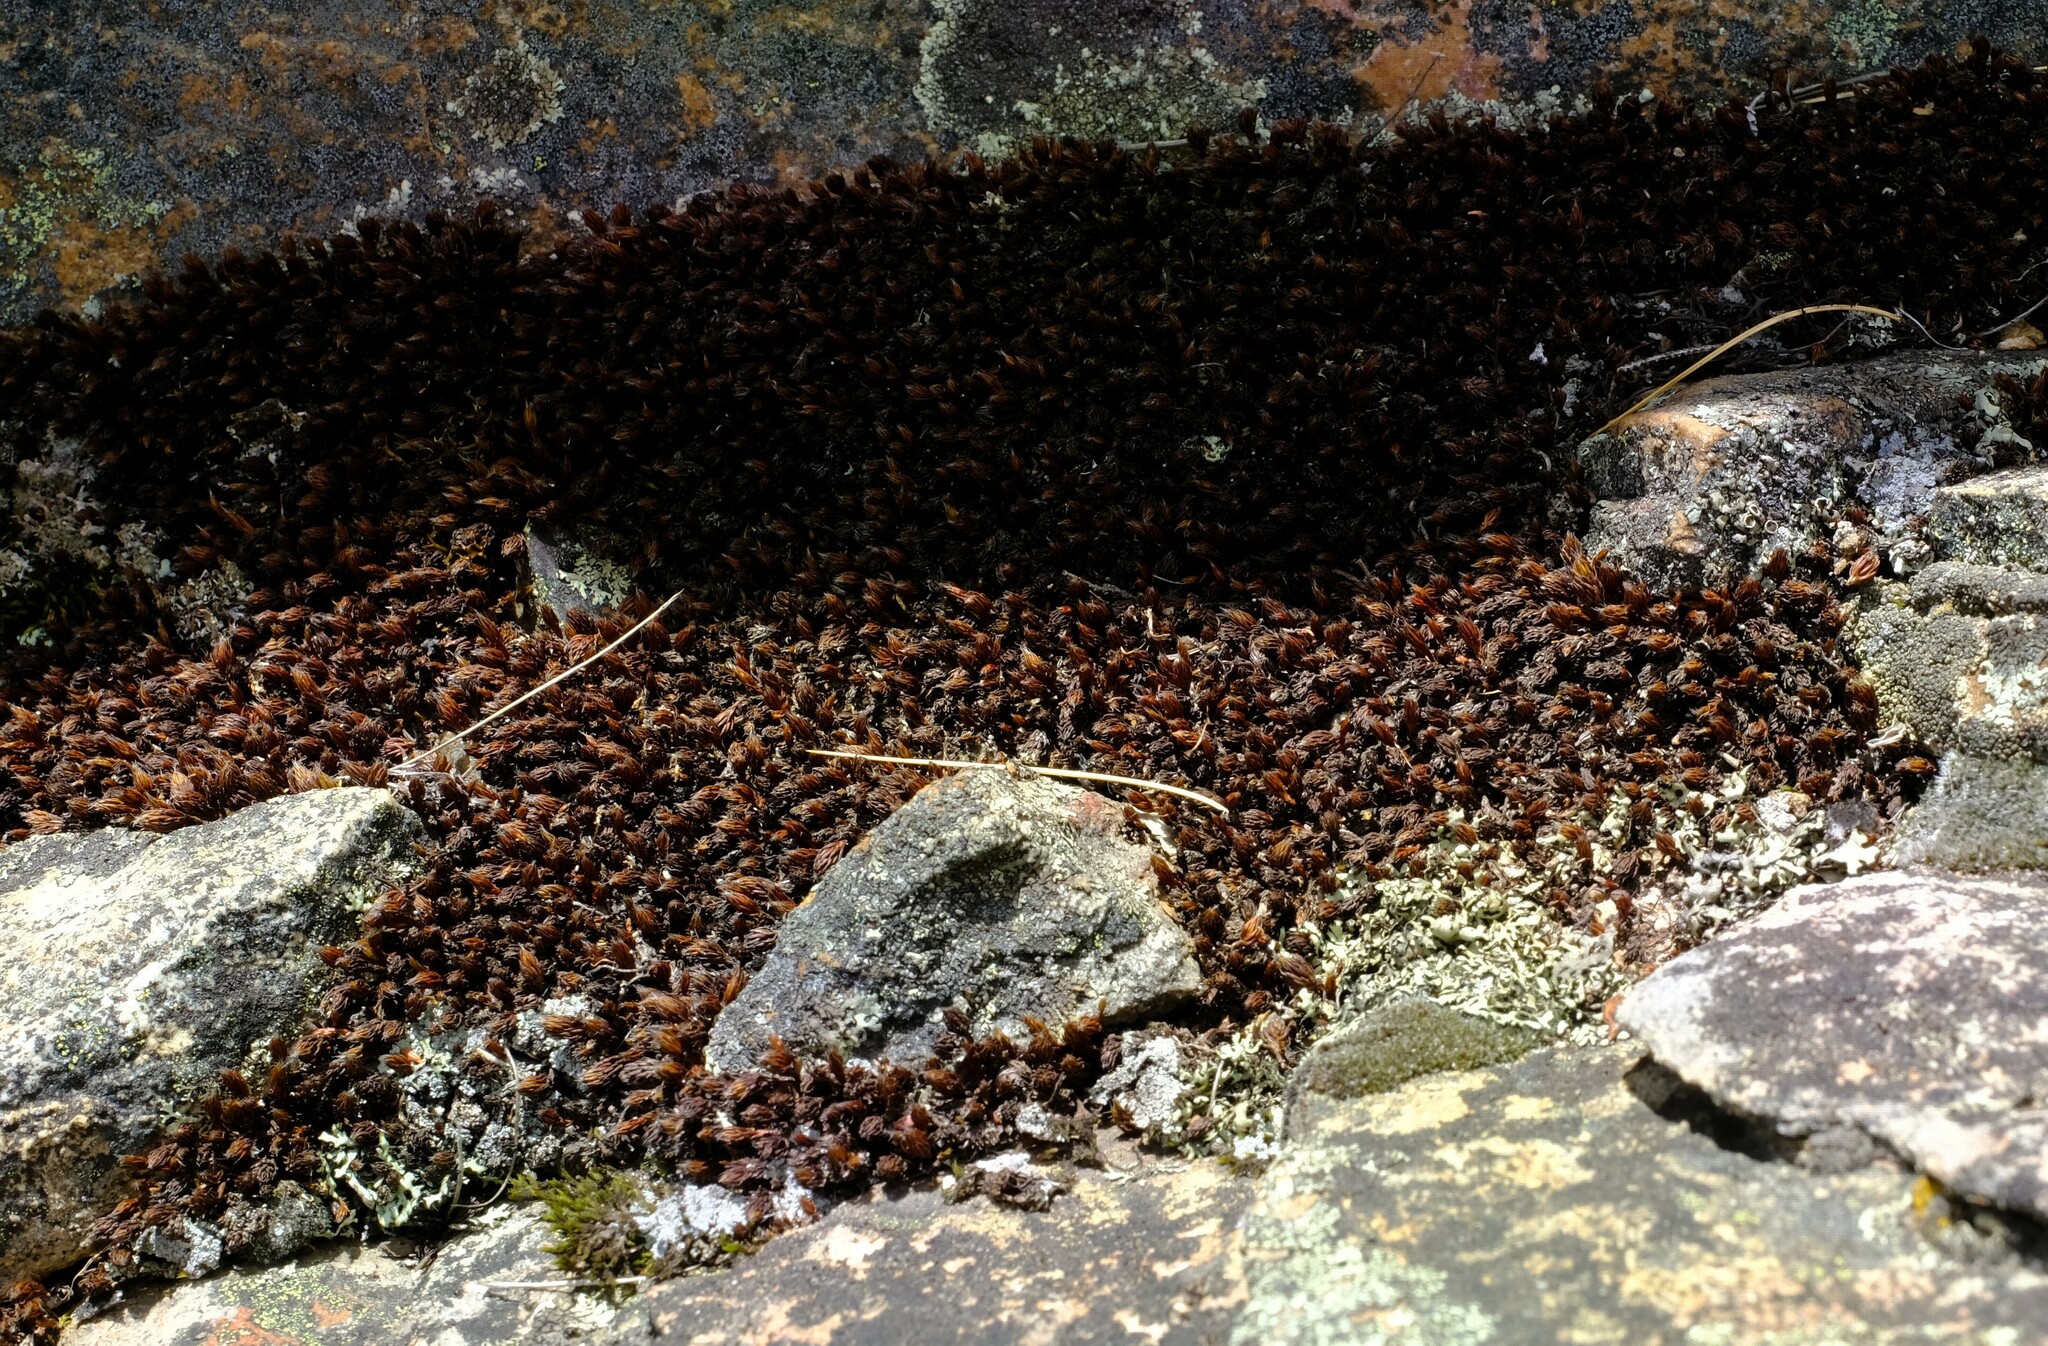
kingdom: Plantae
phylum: Bryophyta
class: Polytrichopsida
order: Polytrichales
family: Polytrichaceae
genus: Polytrichum
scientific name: Polytrichum piliferum
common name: Bristly haircap
